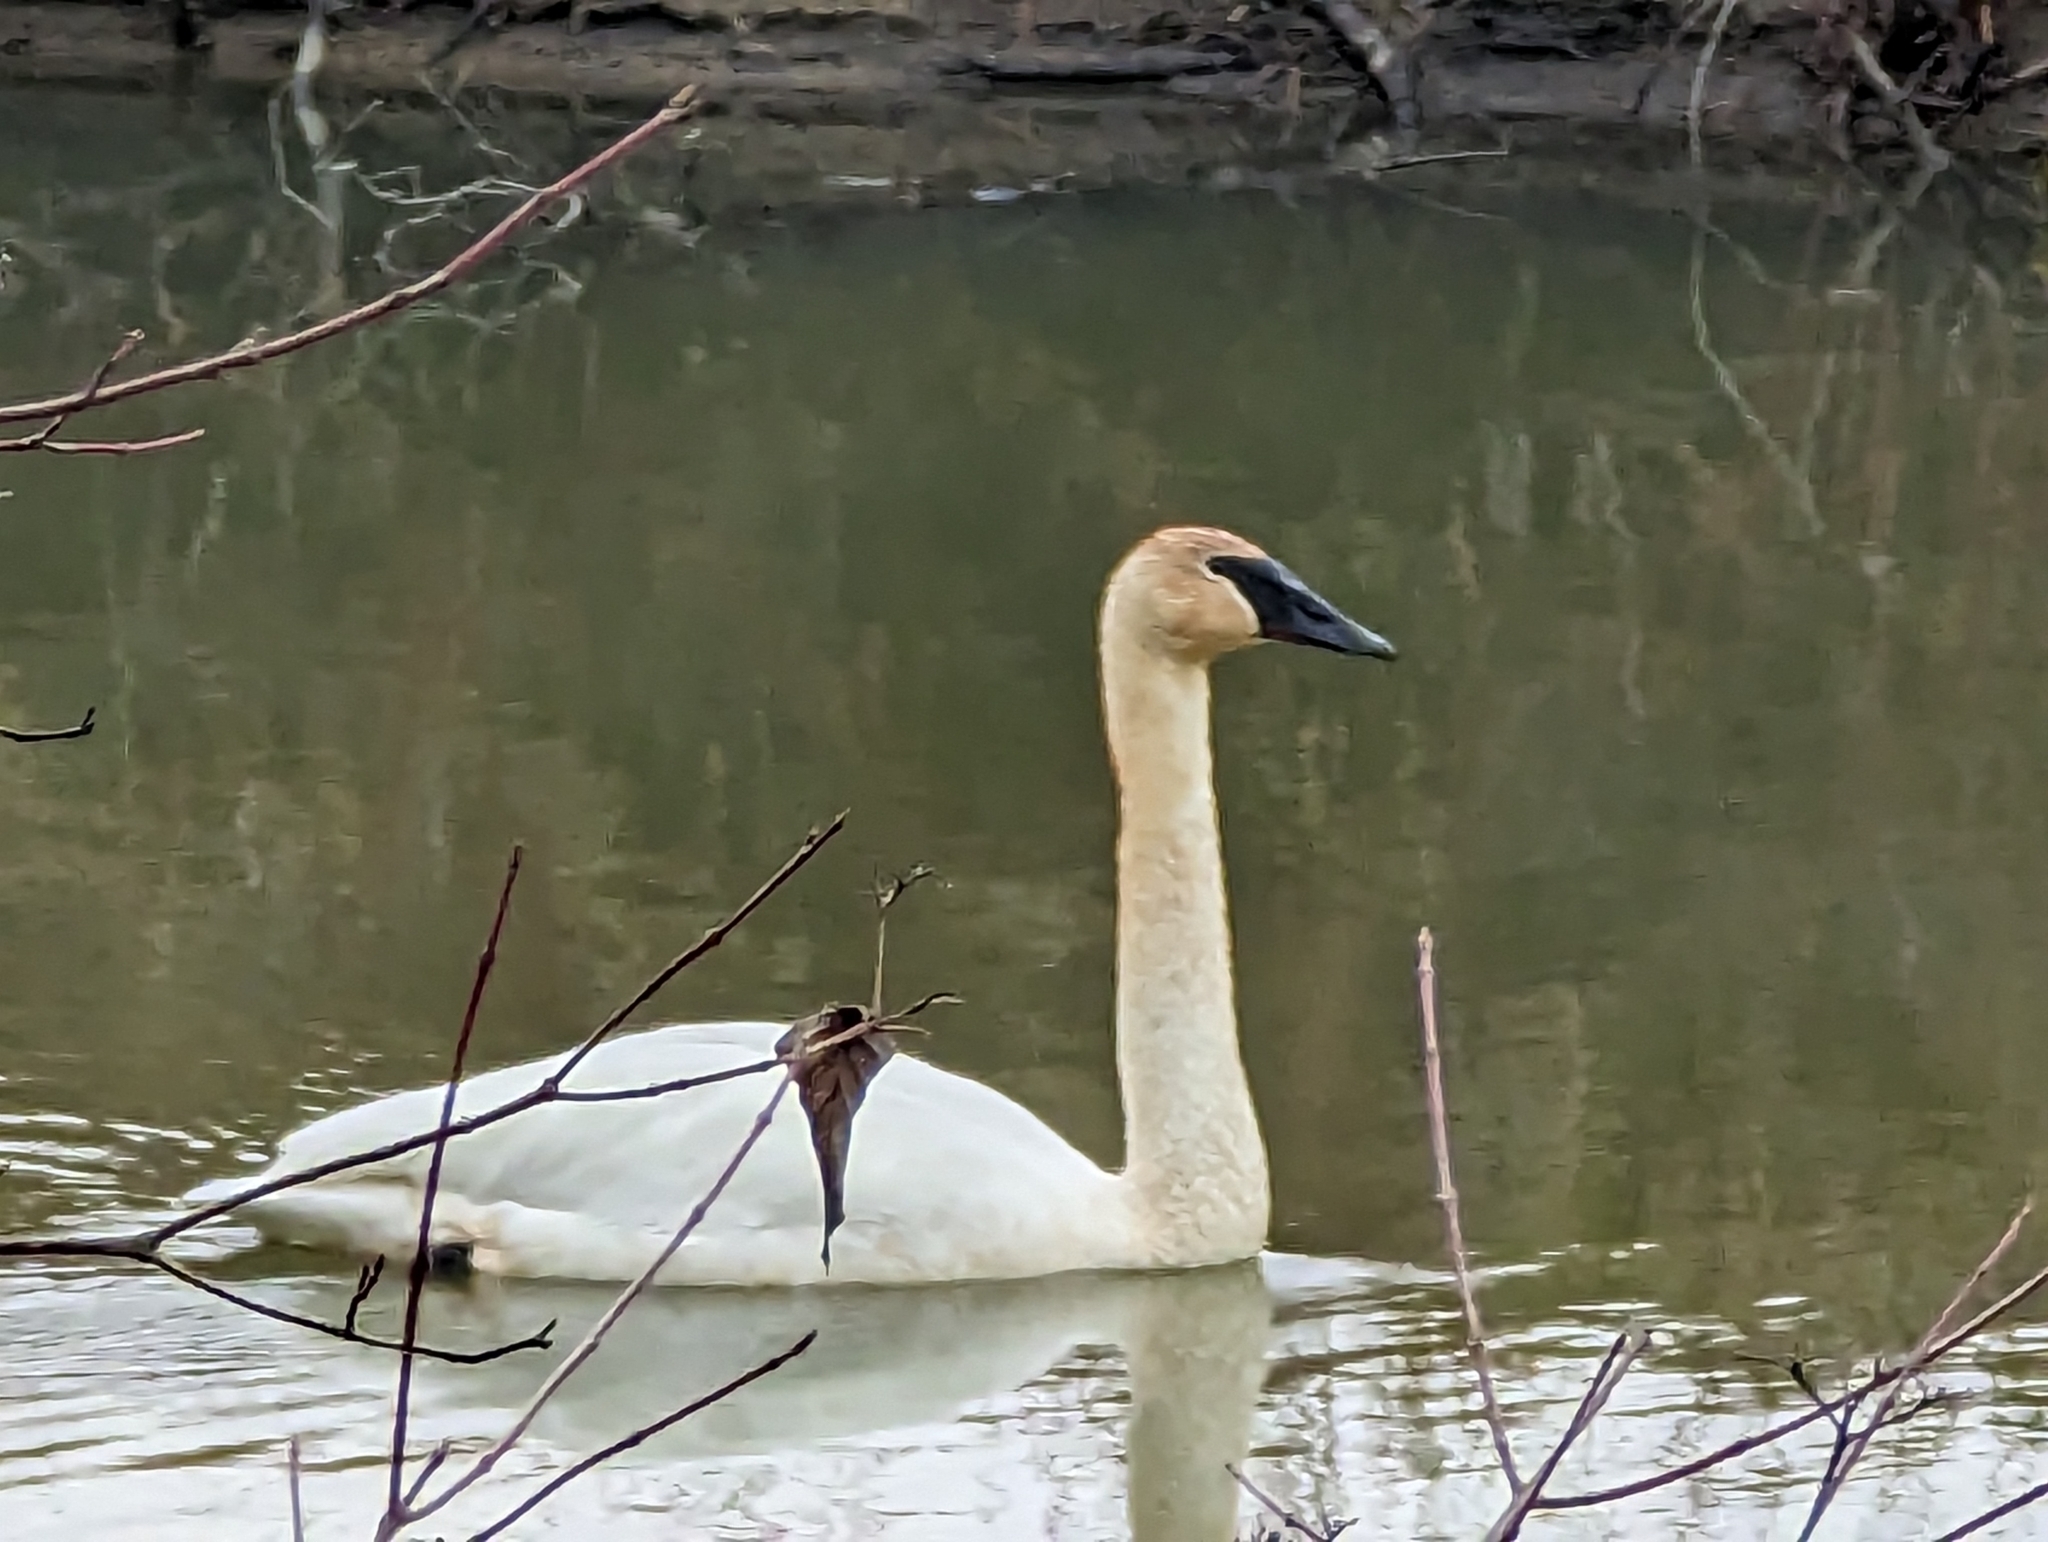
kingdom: Animalia
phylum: Chordata
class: Aves
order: Anseriformes
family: Anatidae
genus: Cygnus
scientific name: Cygnus buccinator
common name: Trumpeter swan
